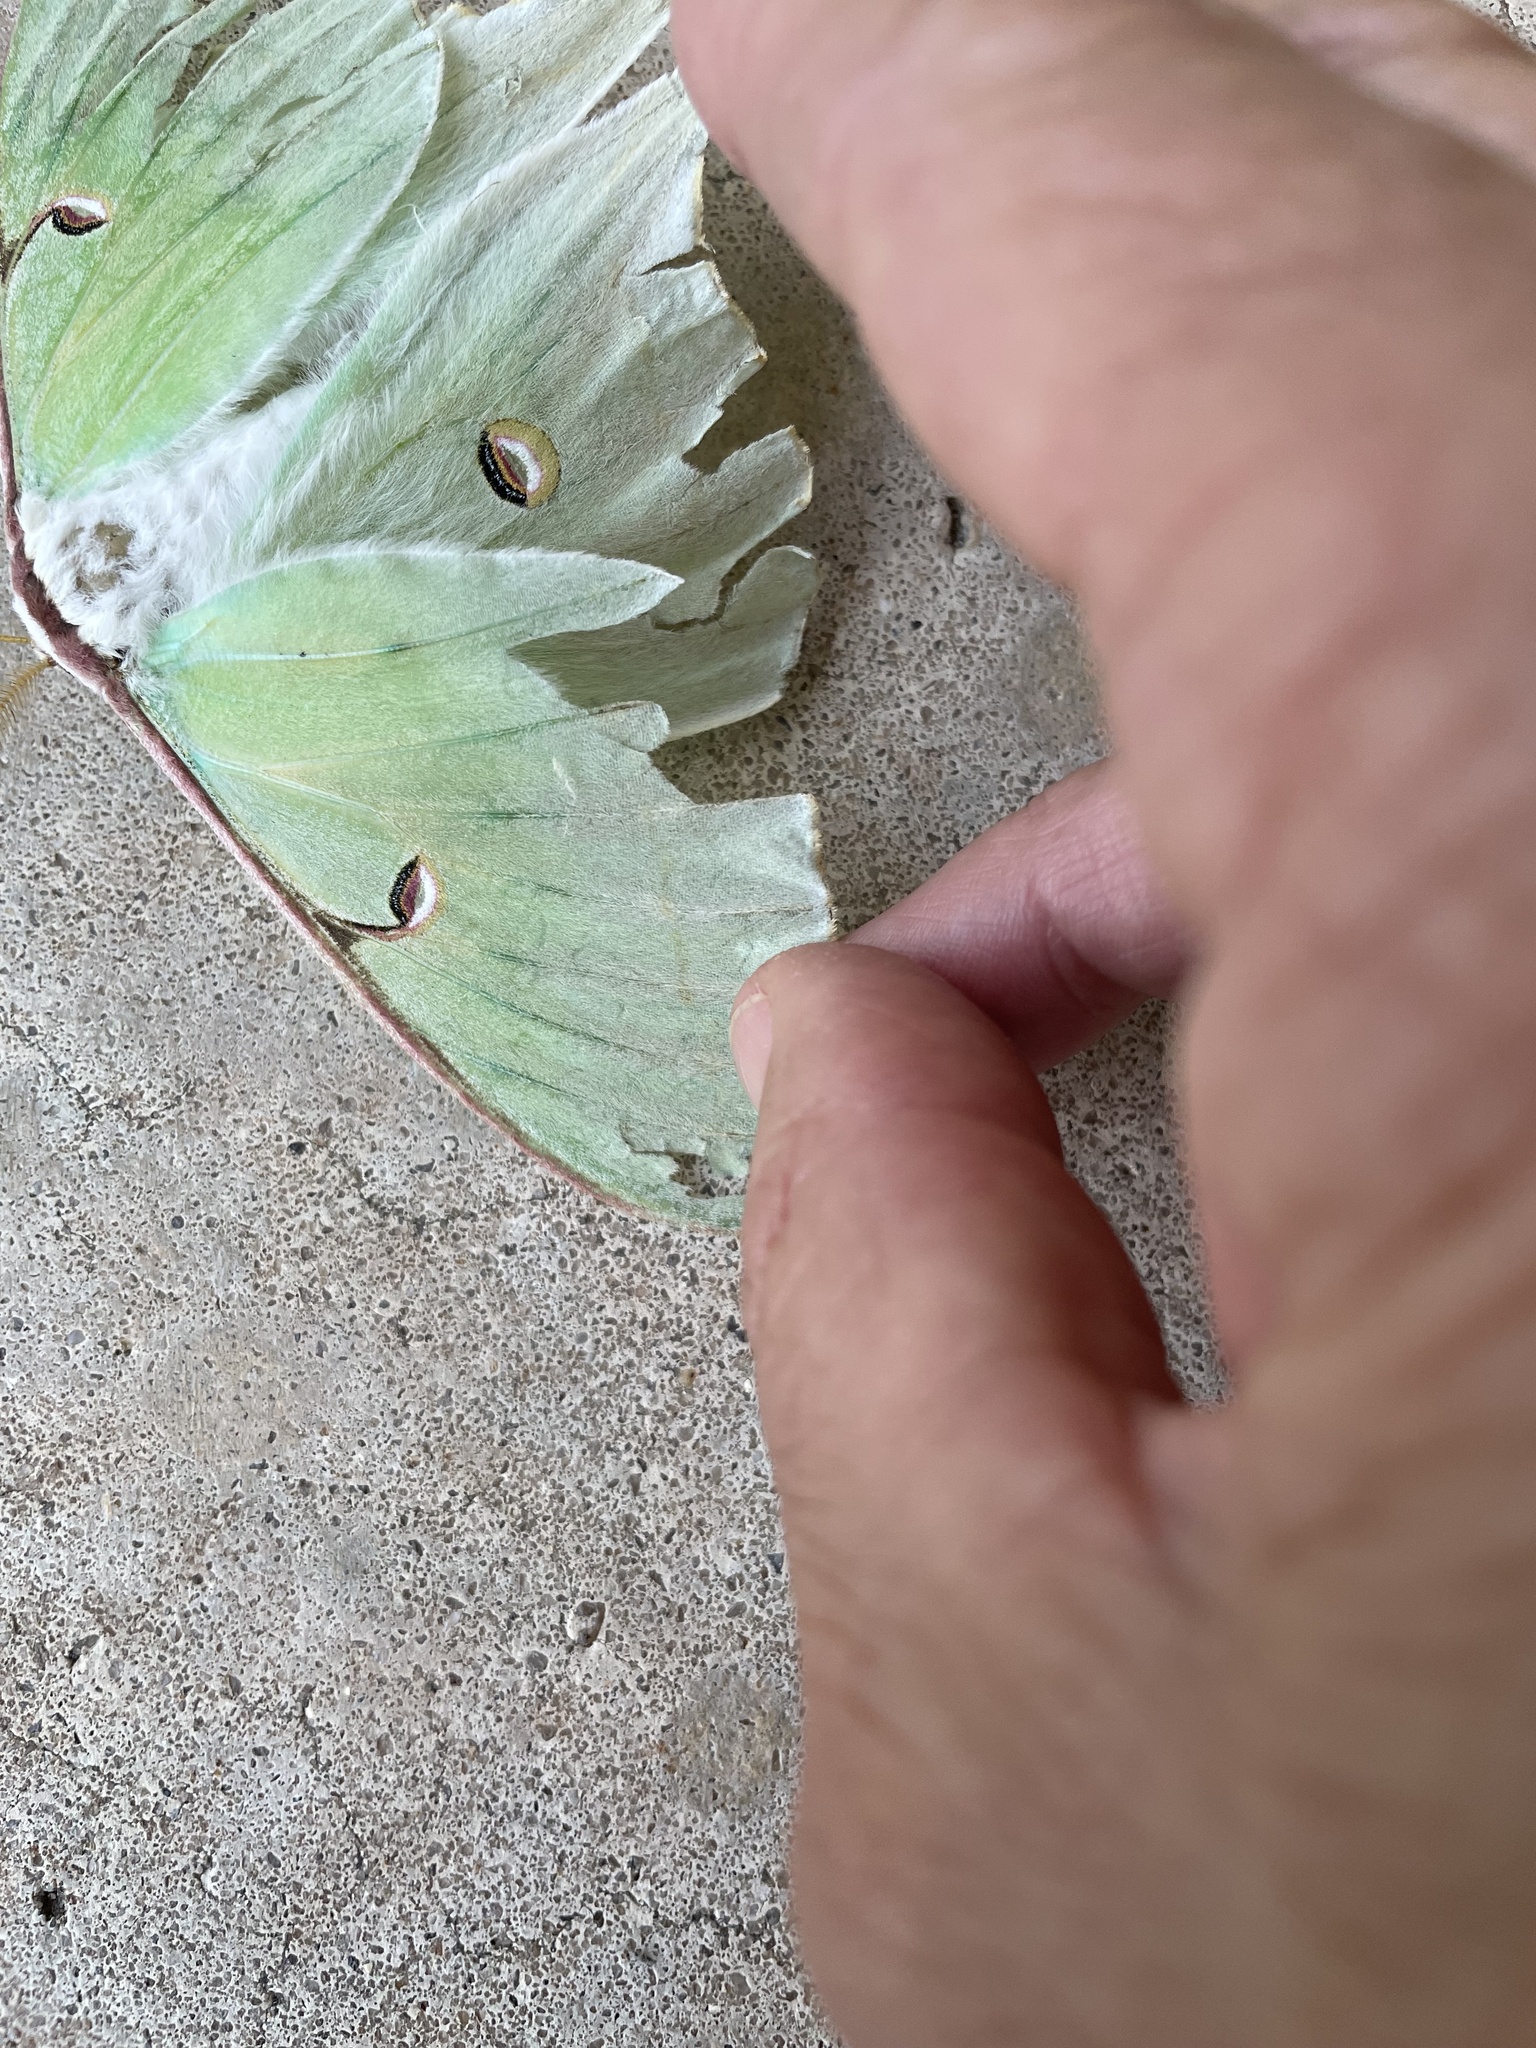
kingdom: Animalia
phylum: Arthropoda
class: Insecta
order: Lepidoptera
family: Saturniidae
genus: Actias
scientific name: Actias luna
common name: Luna moth
